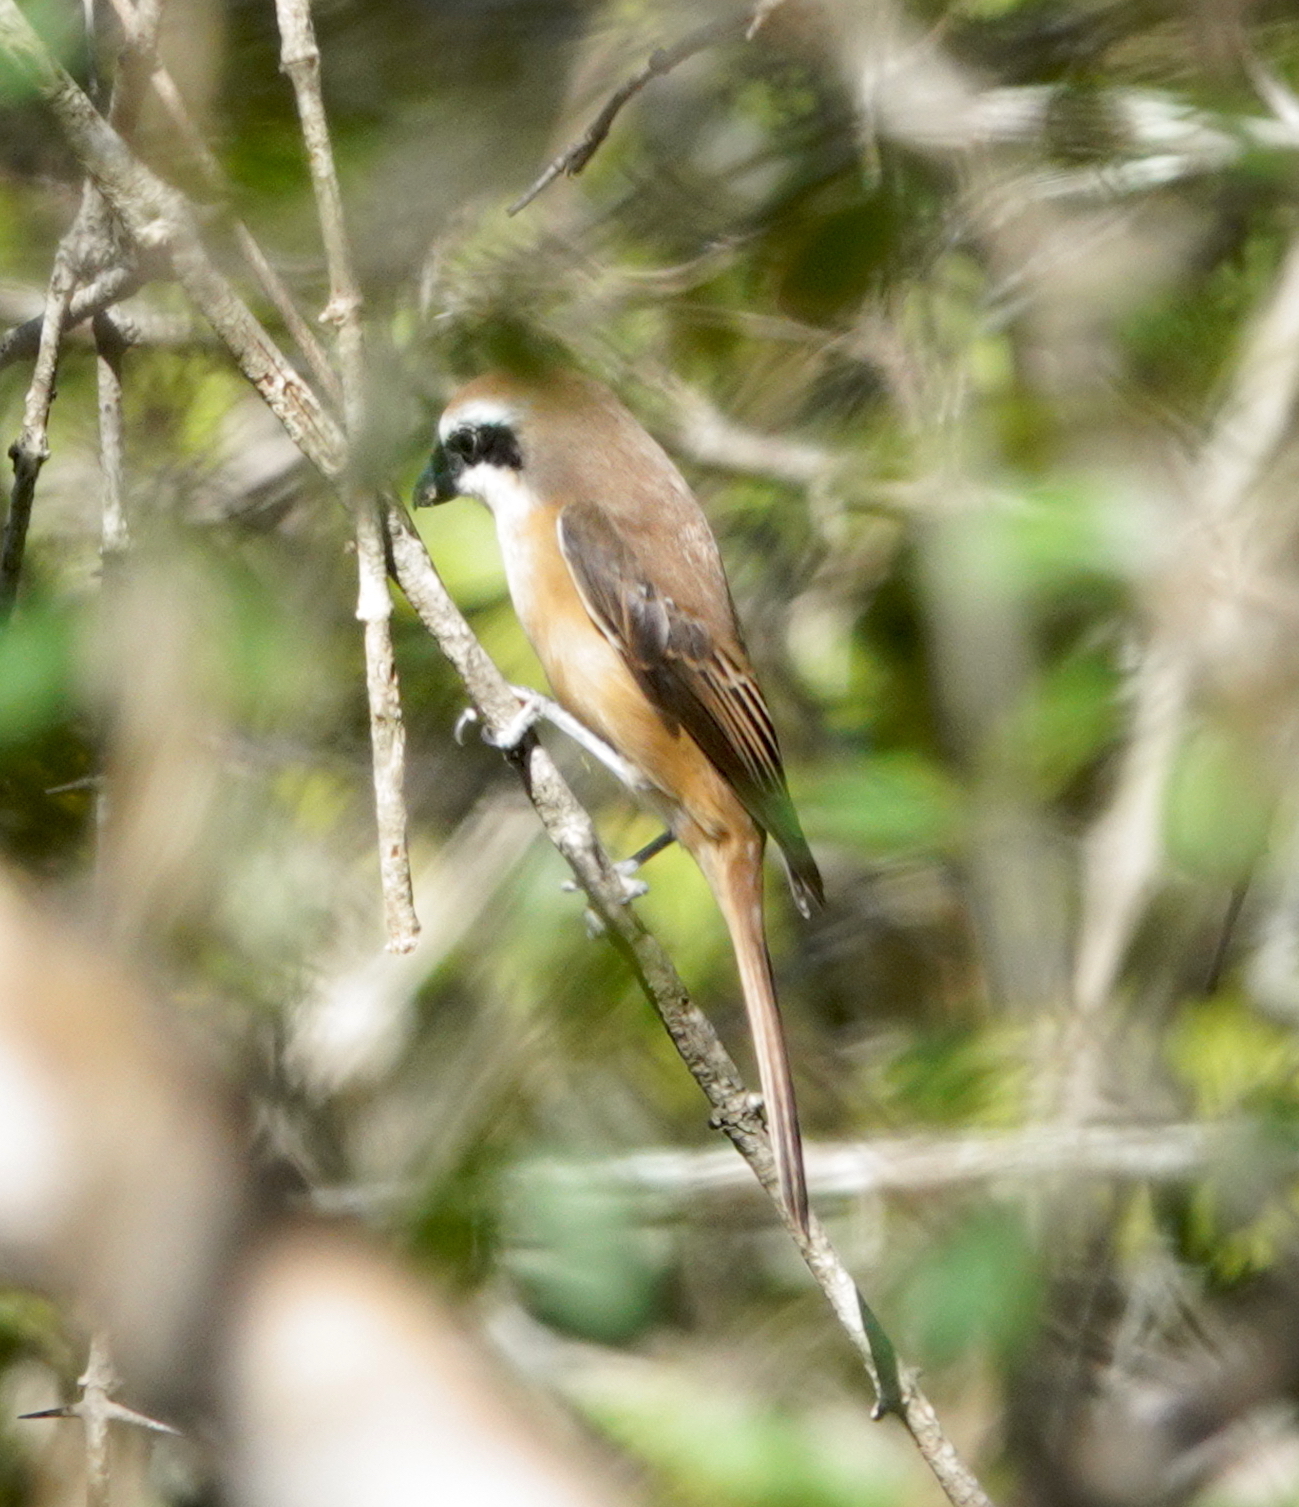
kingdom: Animalia
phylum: Chordata
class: Aves
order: Passeriformes
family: Laniidae
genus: Lanius
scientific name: Lanius cristatus
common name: Brown shrike
